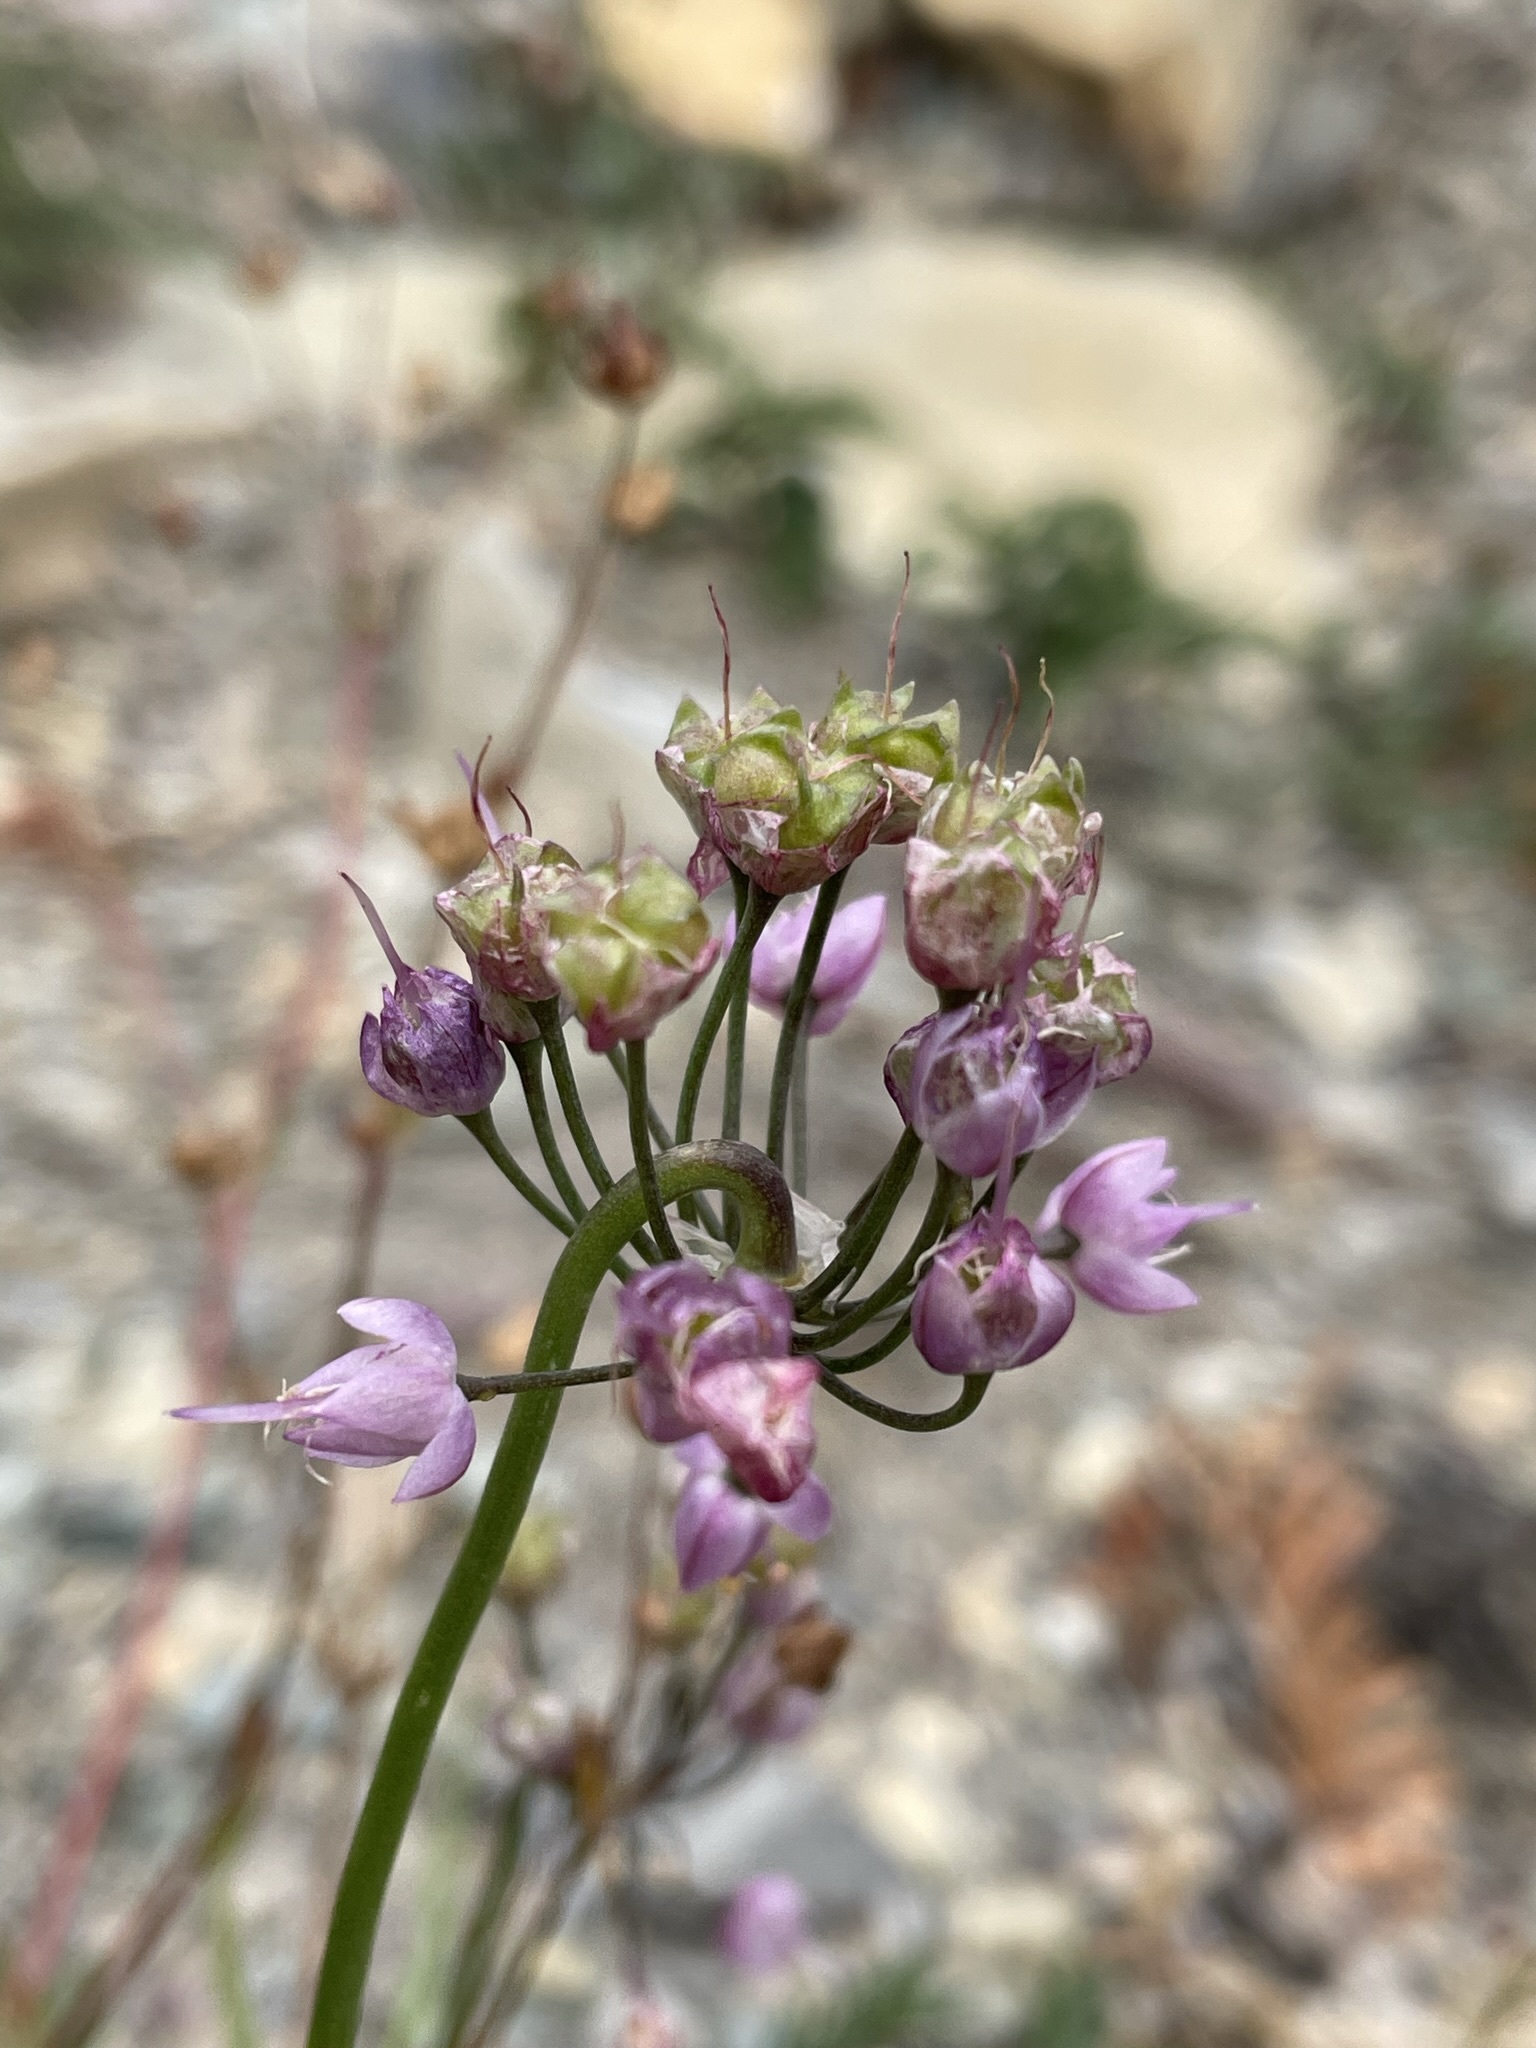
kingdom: Plantae
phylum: Tracheophyta
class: Liliopsida
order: Asparagales
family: Amaryllidaceae
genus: Allium
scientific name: Allium cernuum
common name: Nodding onion
